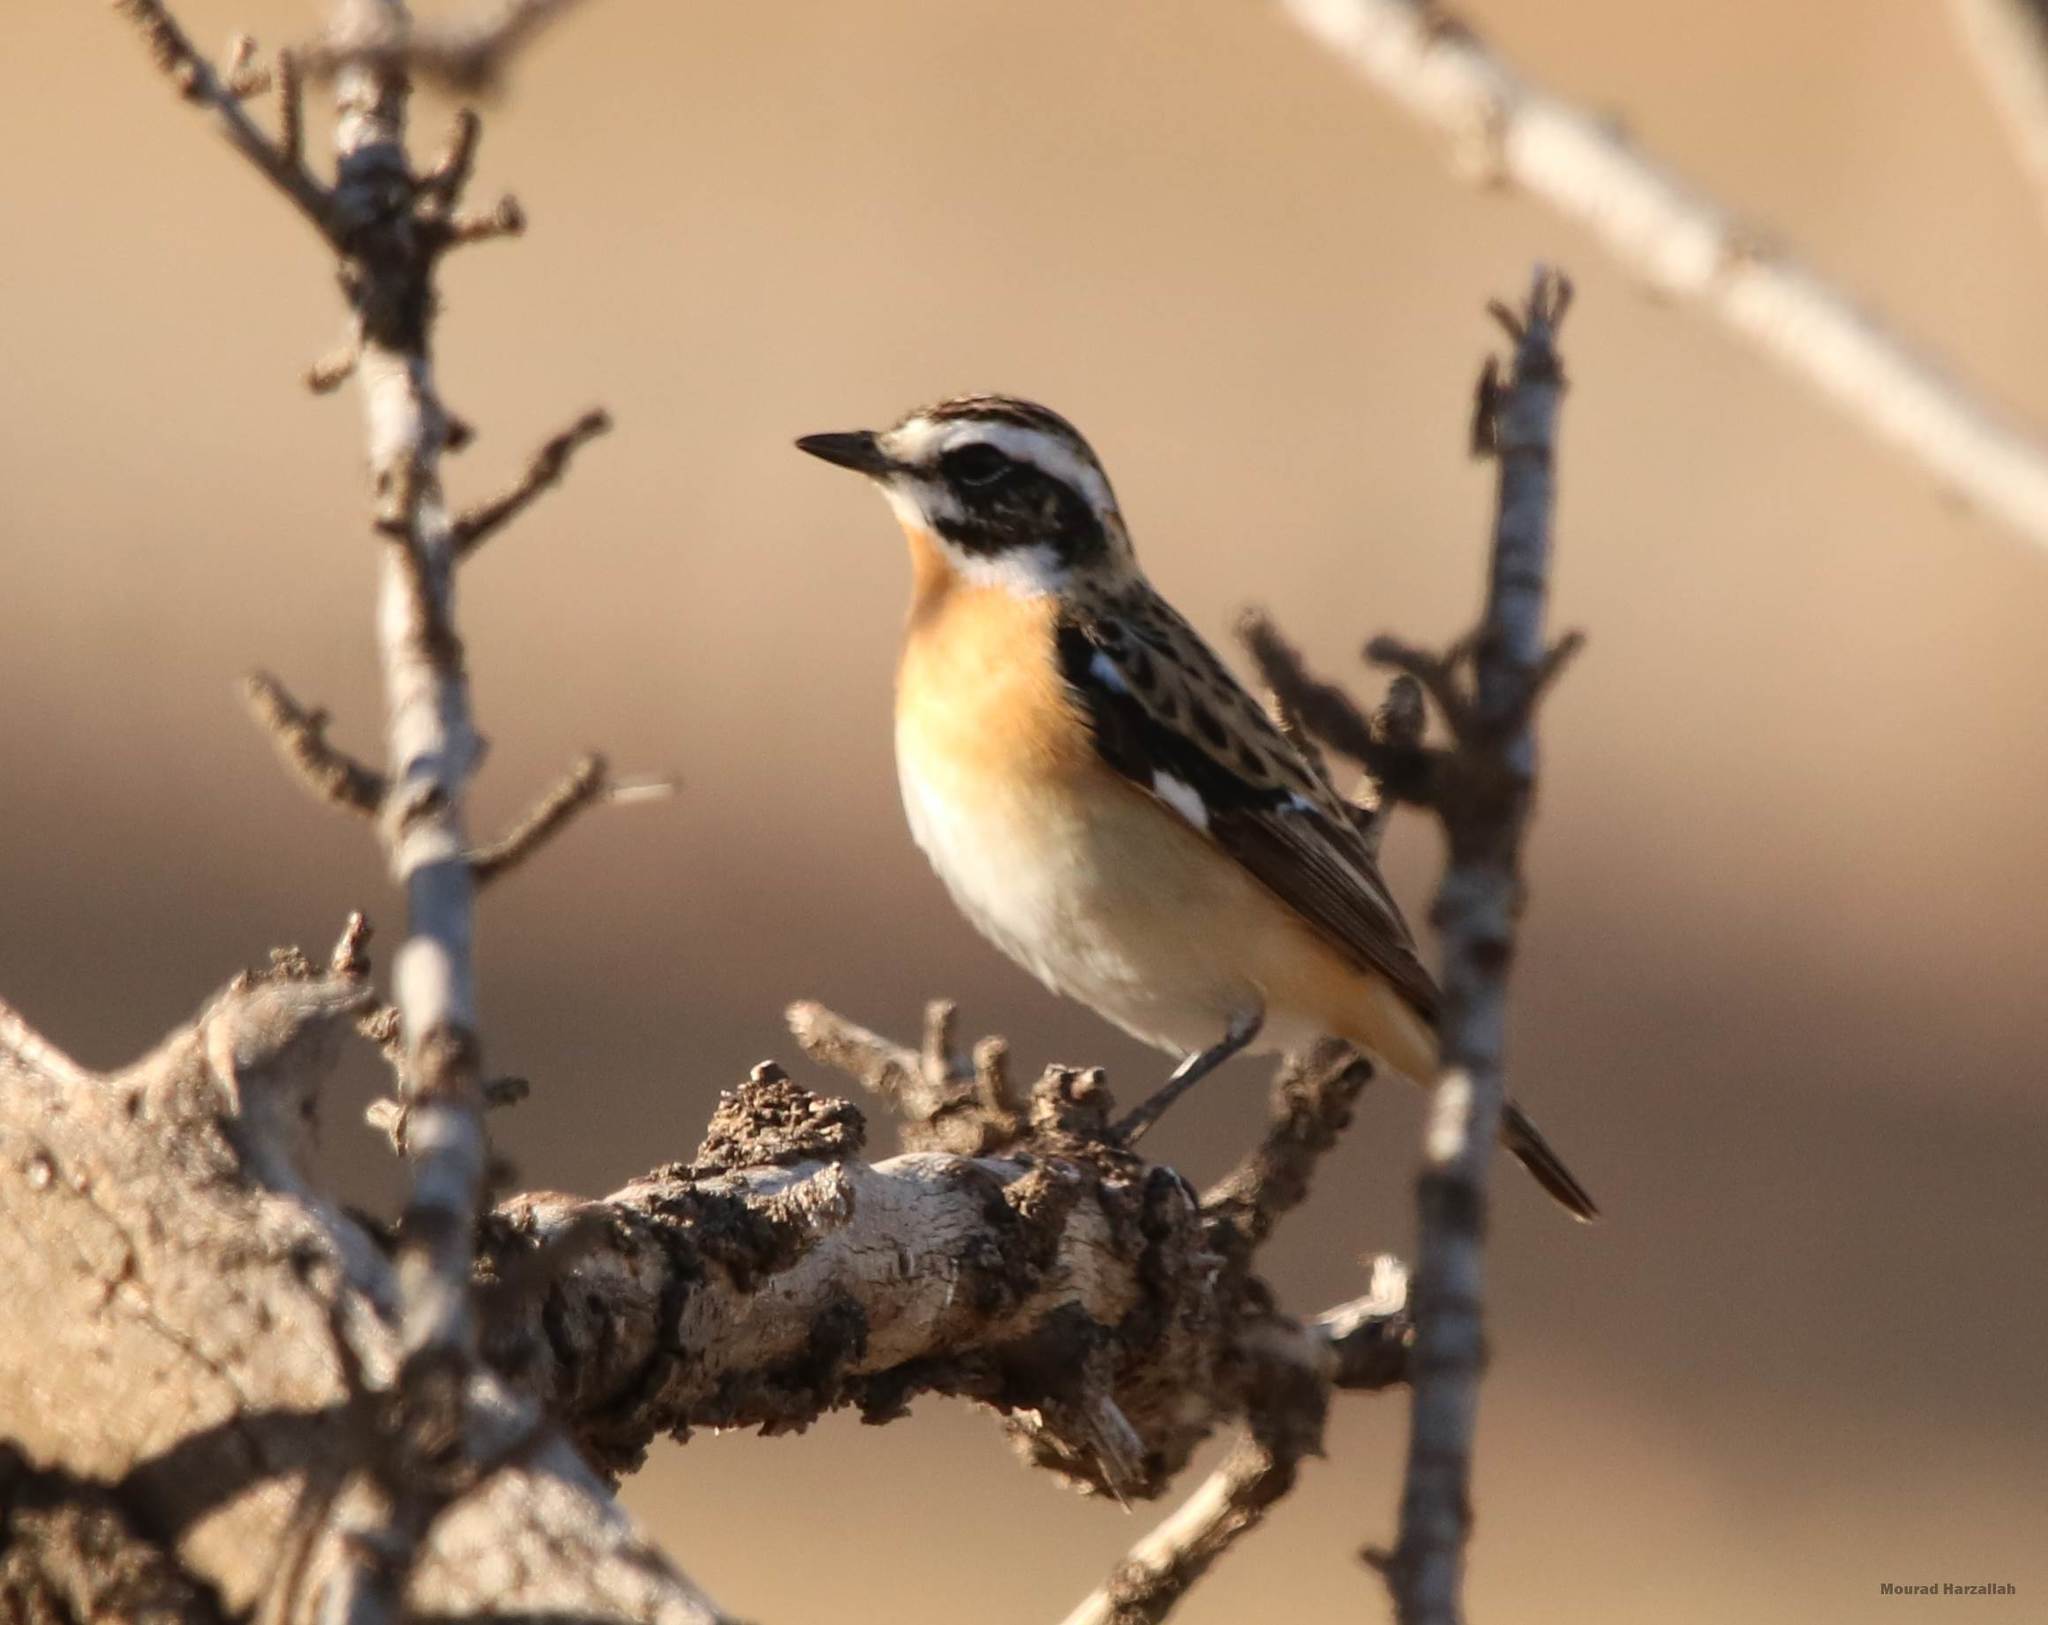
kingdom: Animalia
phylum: Chordata
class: Aves
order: Passeriformes
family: Muscicapidae
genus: Saxicola
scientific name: Saxicola rubetra
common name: Whinchat
